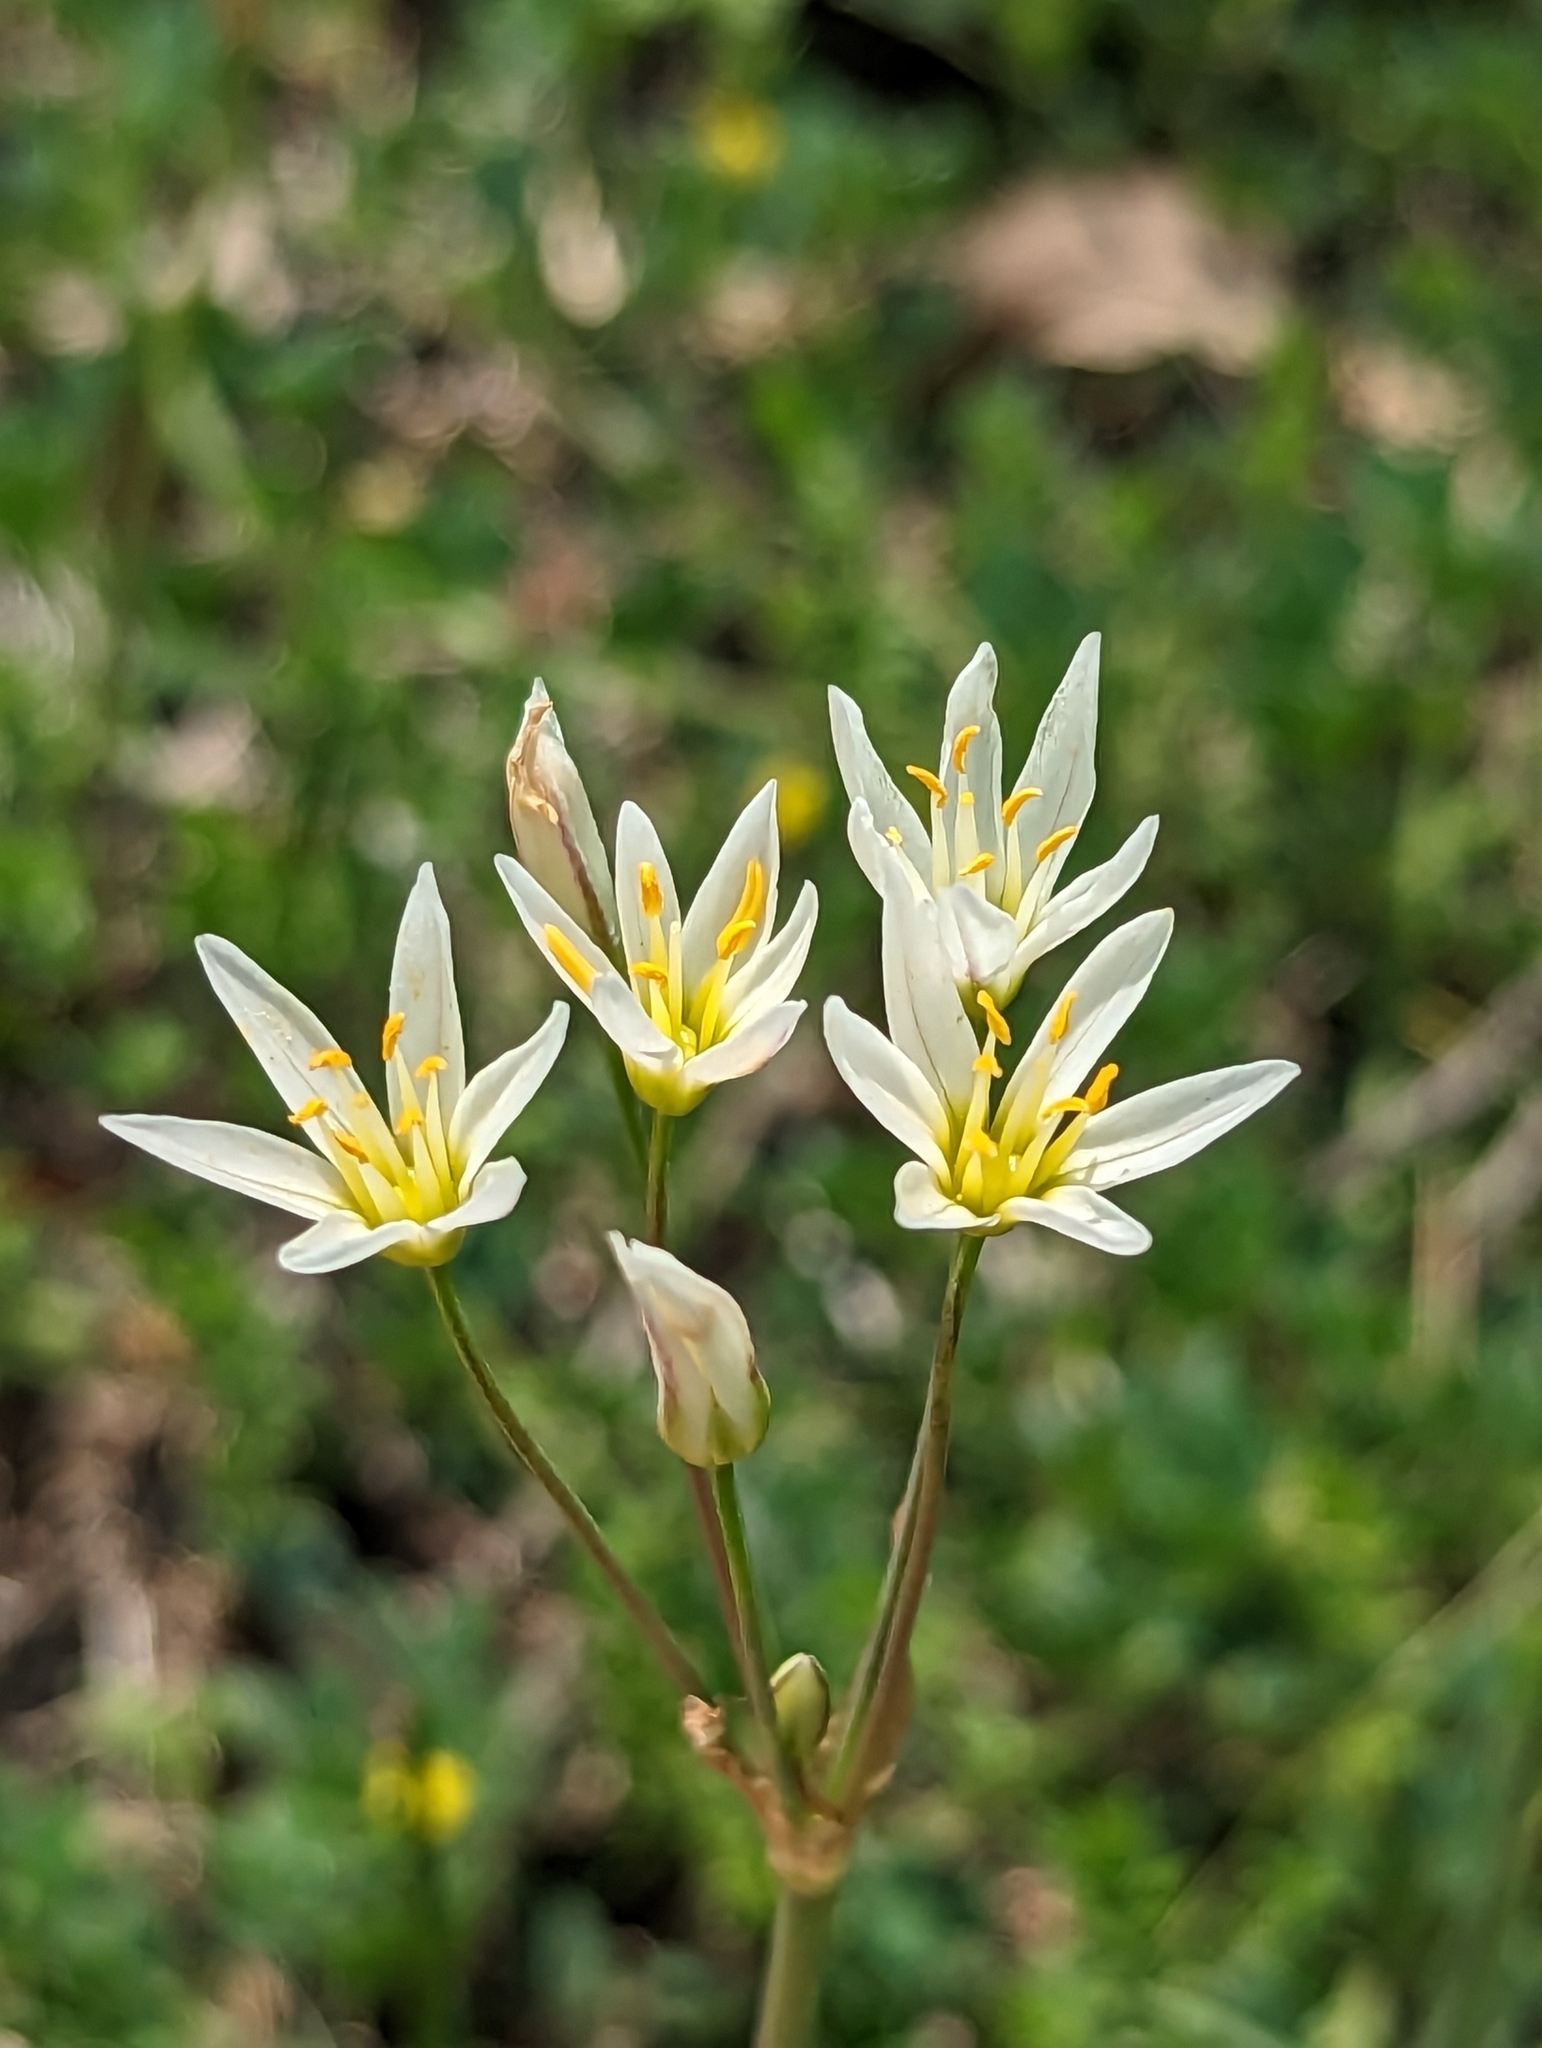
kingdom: Plantae
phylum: Tracheophyta
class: Liliopsida
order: Asparagales
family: Amaryllidaceae
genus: Nothoscordum
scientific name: Nothoscordum bivalve
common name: Crow-poison
